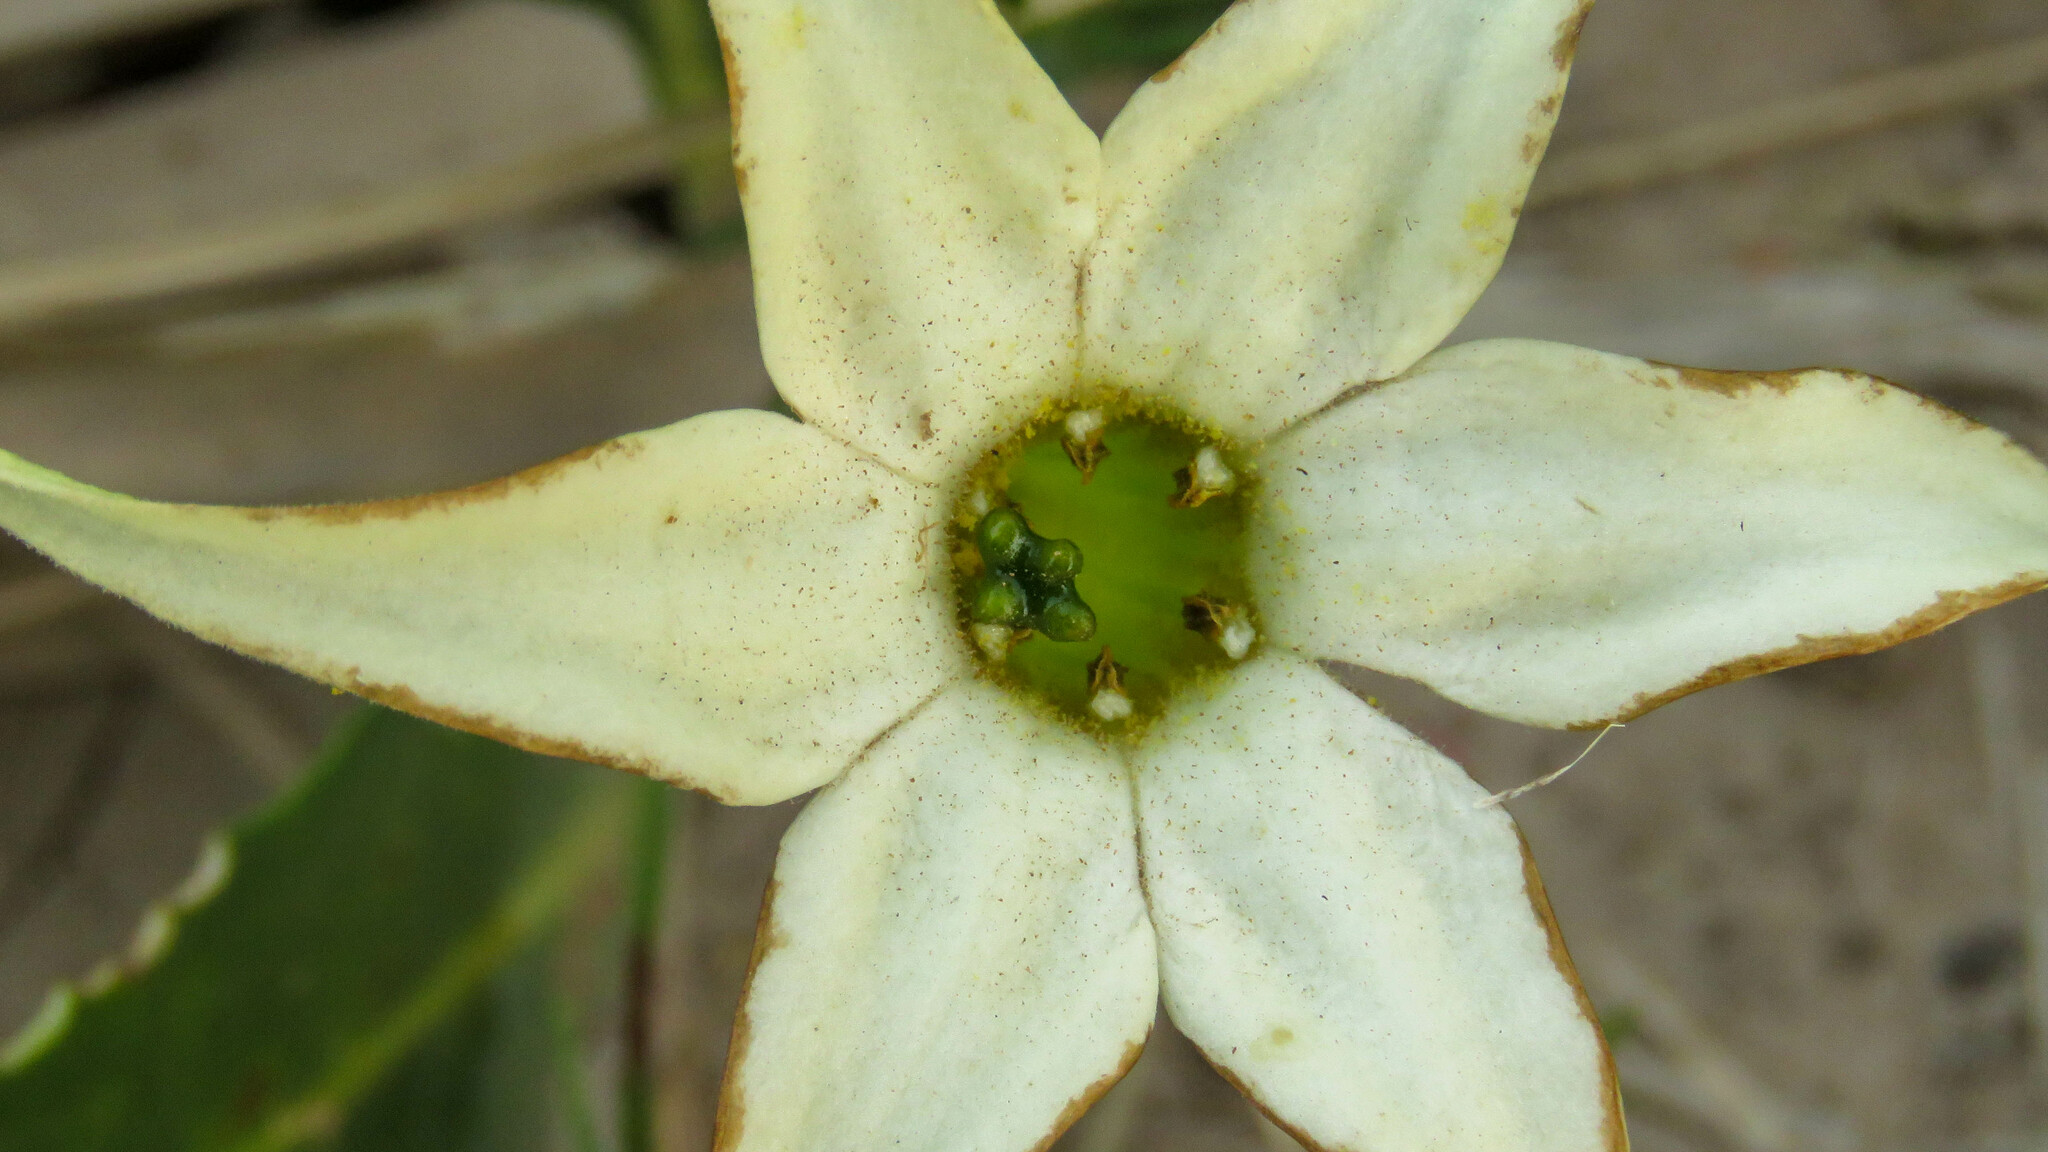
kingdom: Plantae
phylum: Tracheophyta
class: Magnoliopsida
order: Solanales
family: Solanaceae
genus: Jaborosa
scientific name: Jaborosa integrifolia
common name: Springblossom
